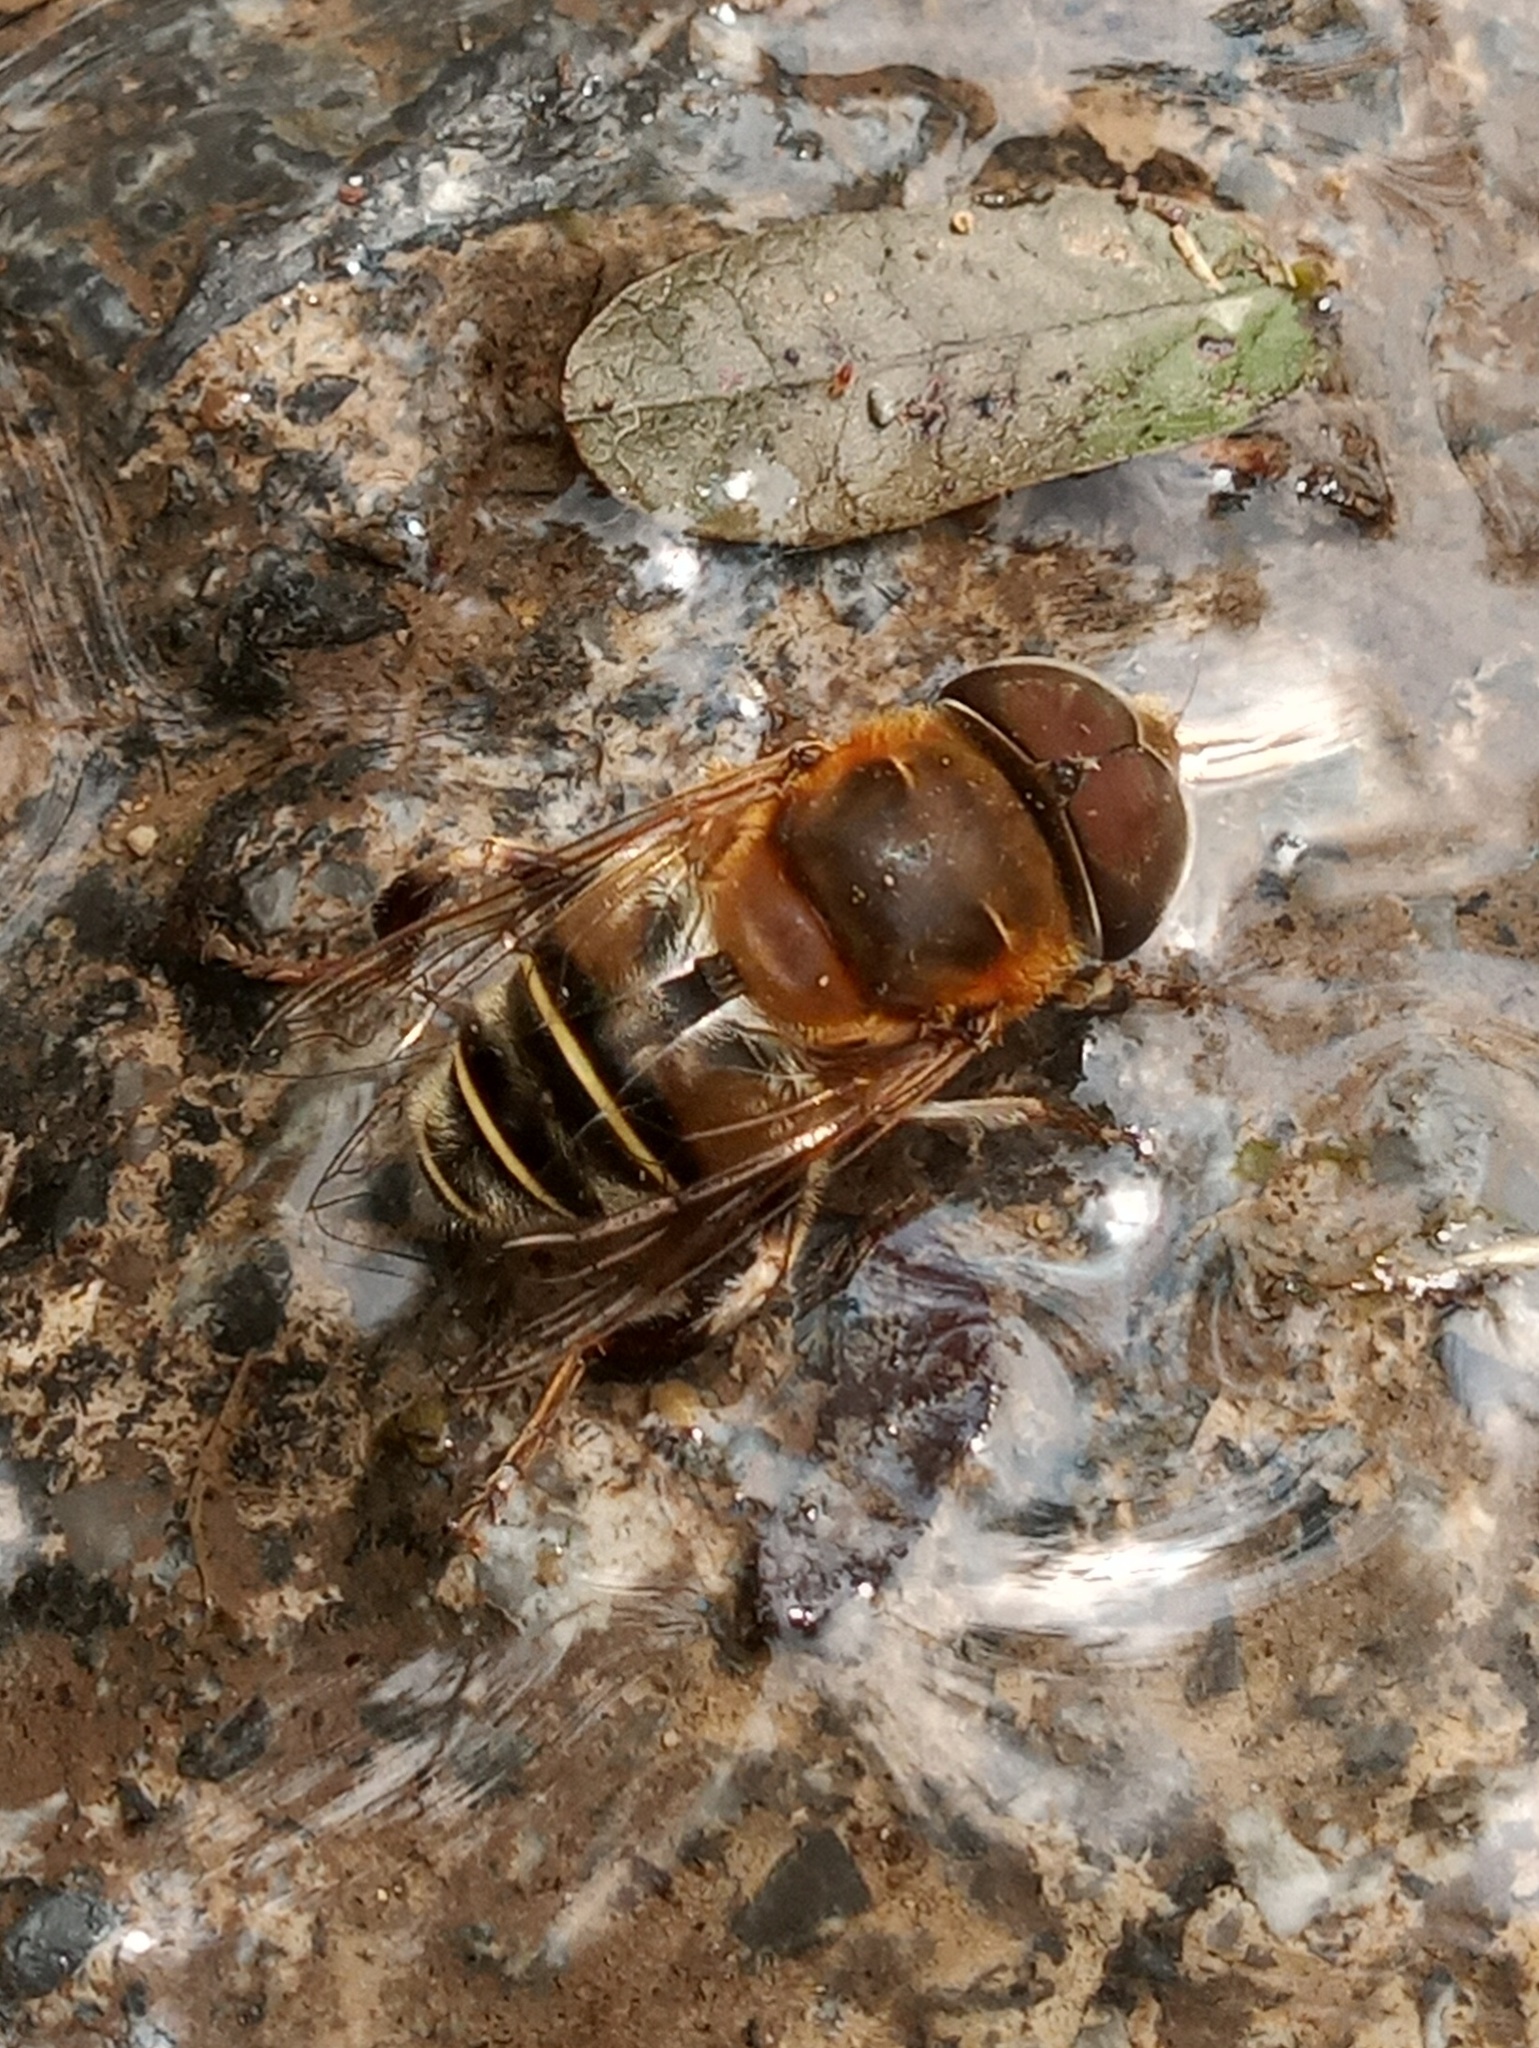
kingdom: Animalia
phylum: Arthropoda
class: Insecta
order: Diptera
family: Syrphidae
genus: Palpada
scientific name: Palpada mexicana
